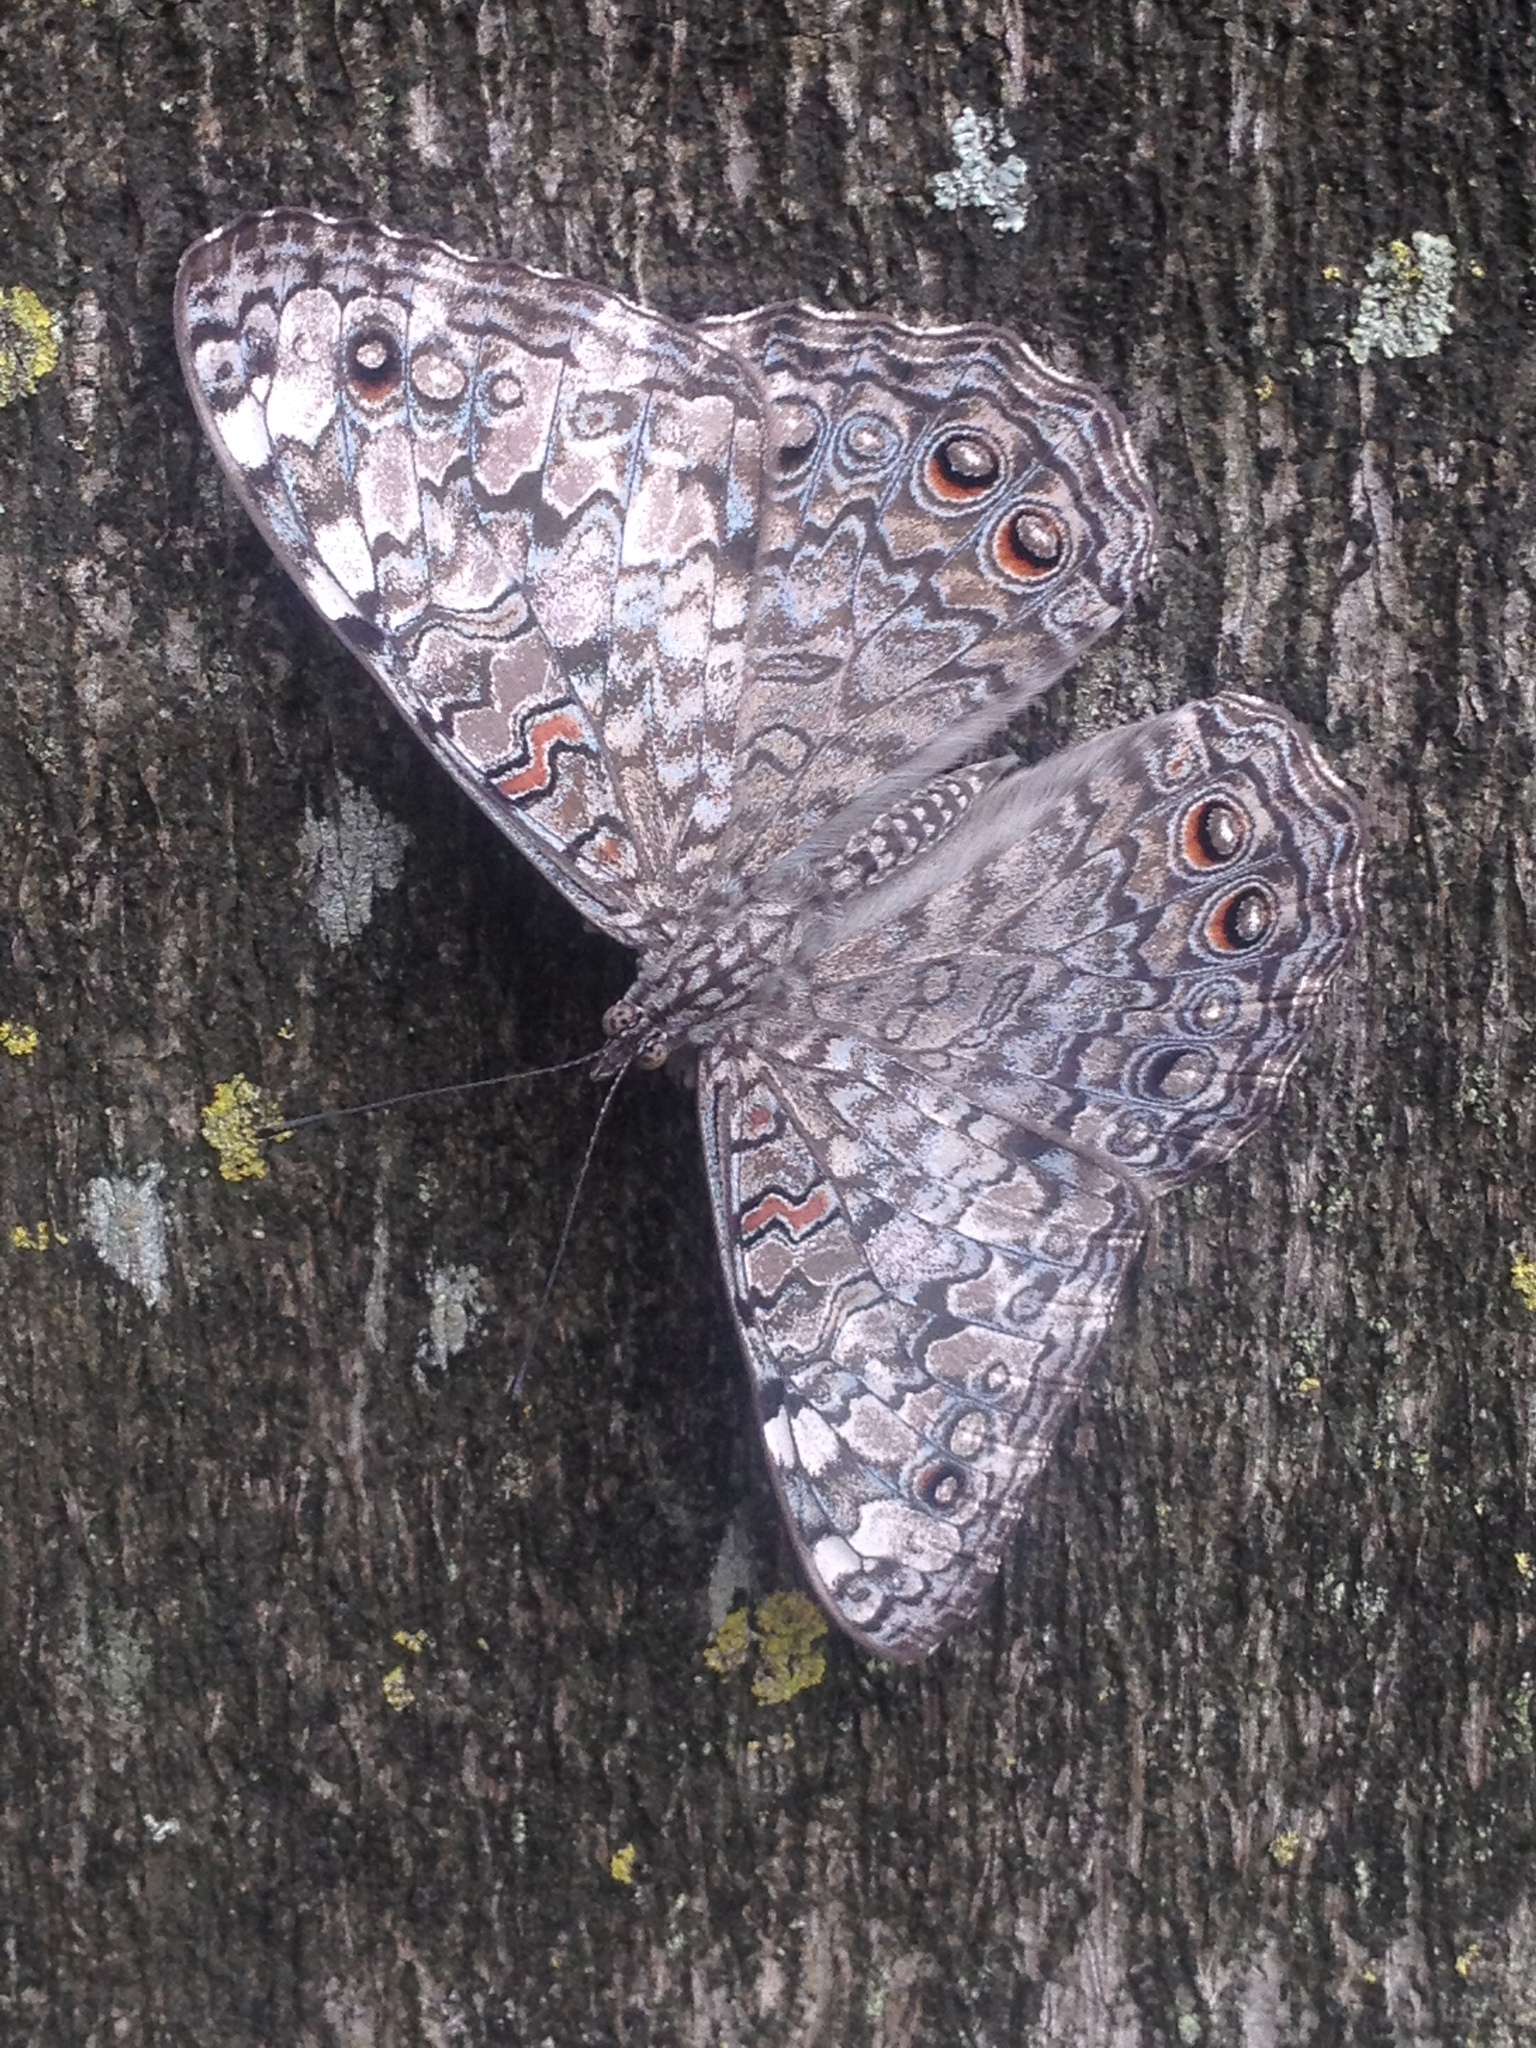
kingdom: Animalia
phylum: Arthropoda
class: Insecta
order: Lepidoptera
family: Nymphalidae
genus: Hamadryas
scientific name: Hamadryas februa
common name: Gray cracker
